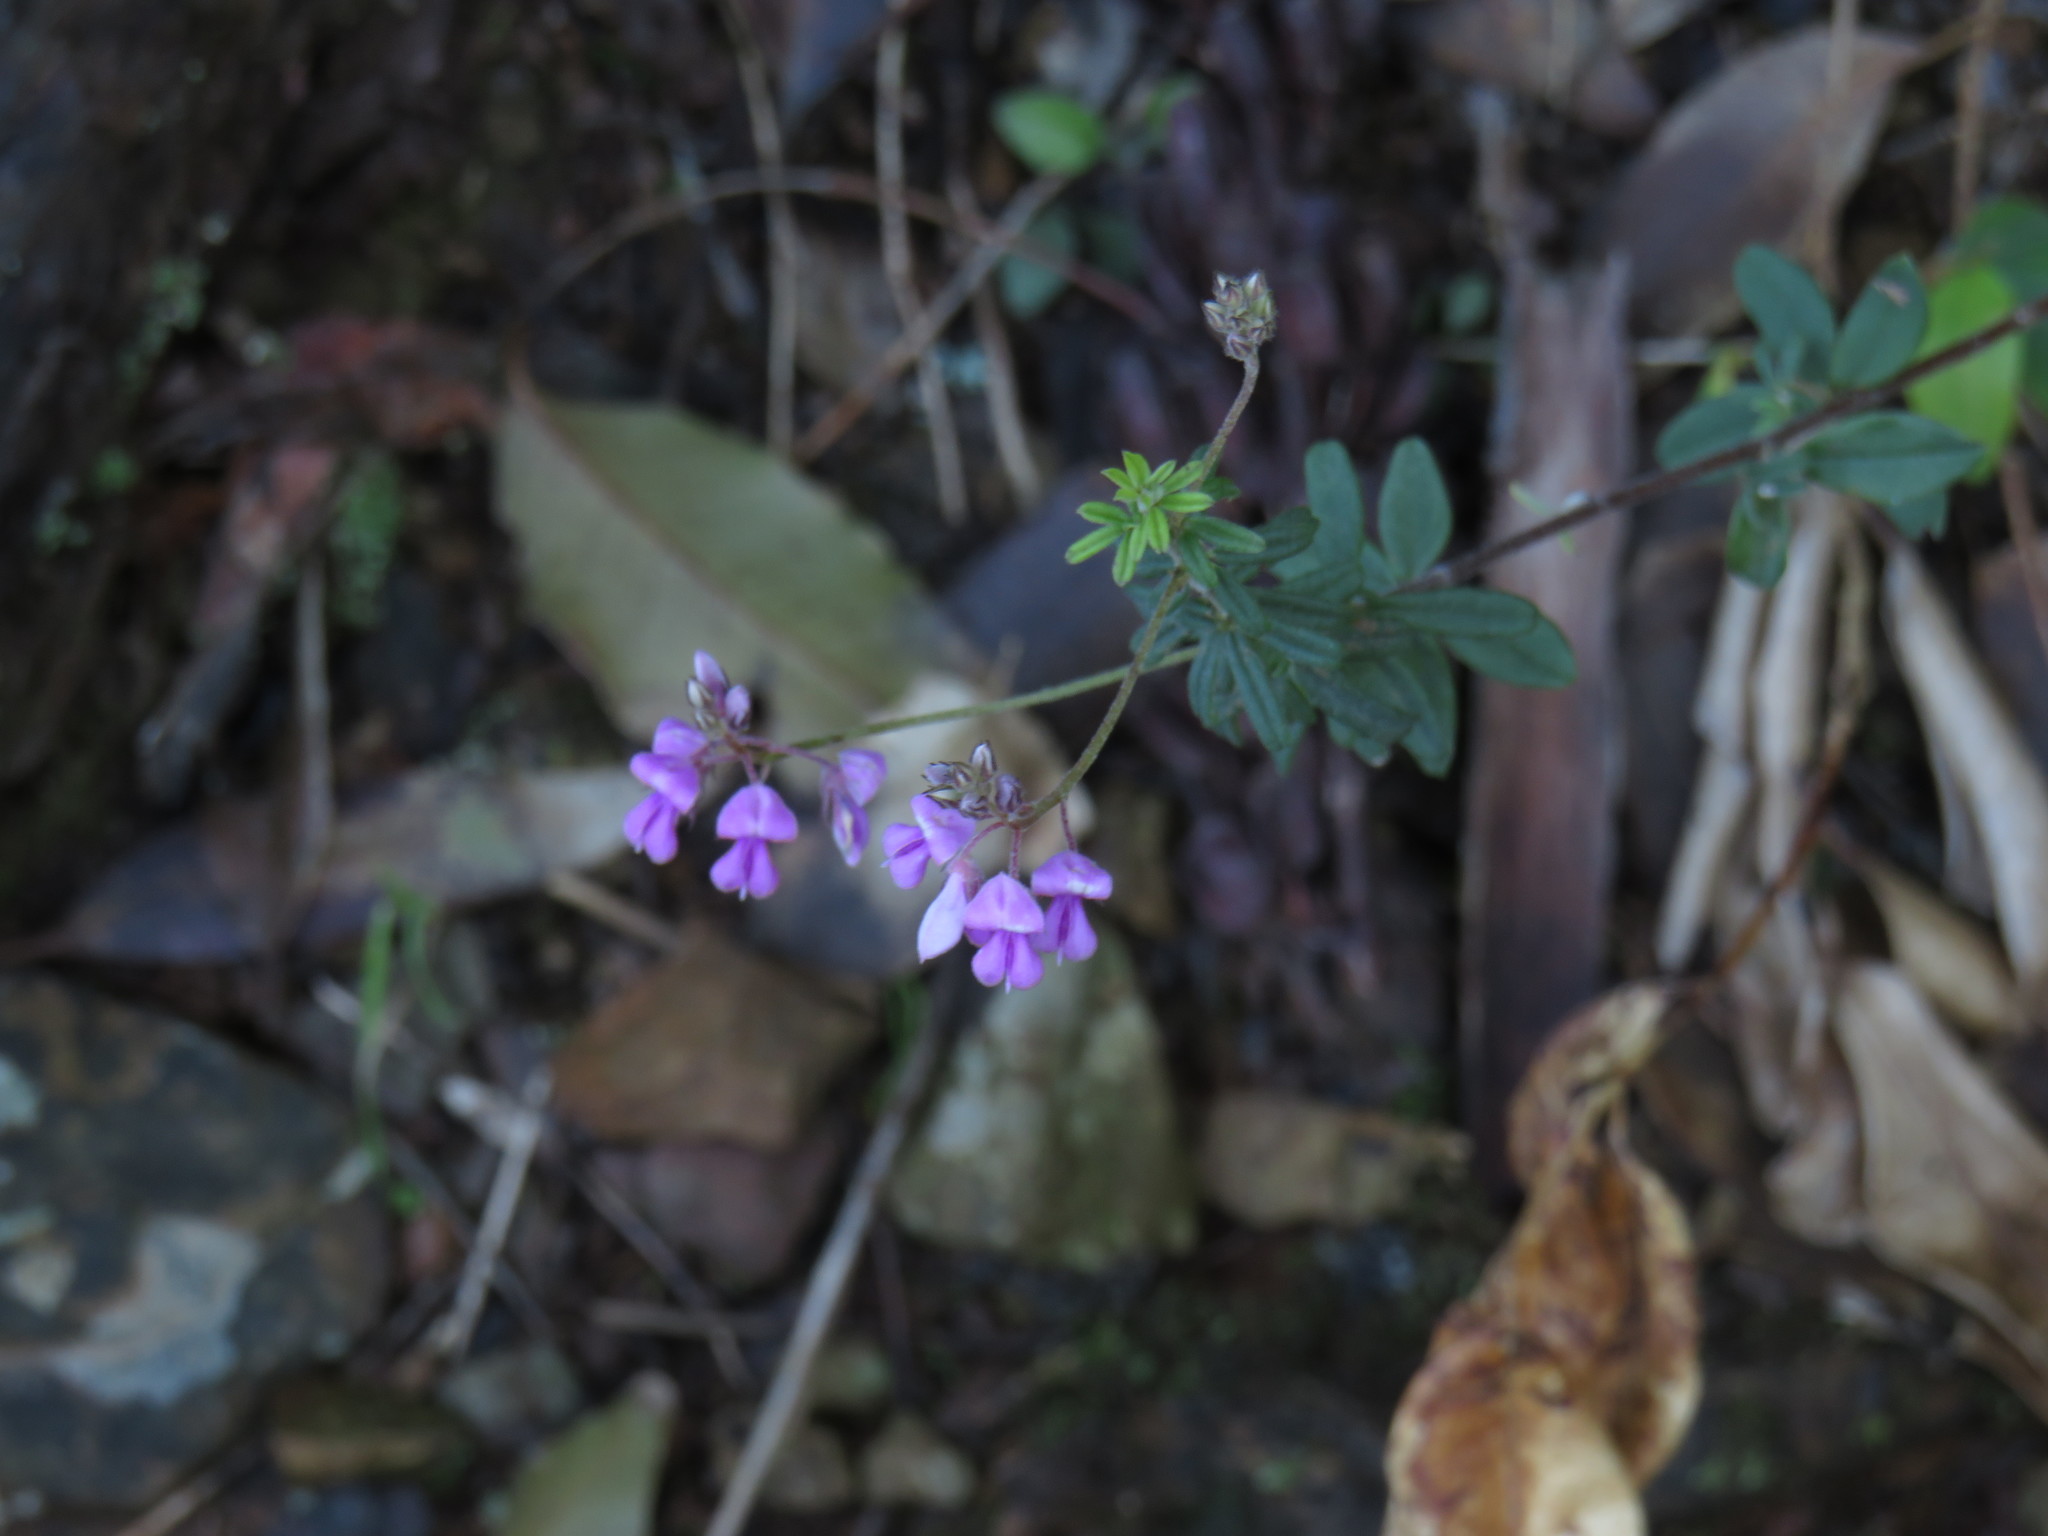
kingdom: Plantae
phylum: Tracheophyta
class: Magnoliopsida
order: Fabales
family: Fabaceae
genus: Indigofera
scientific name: Indigofera filiformis
